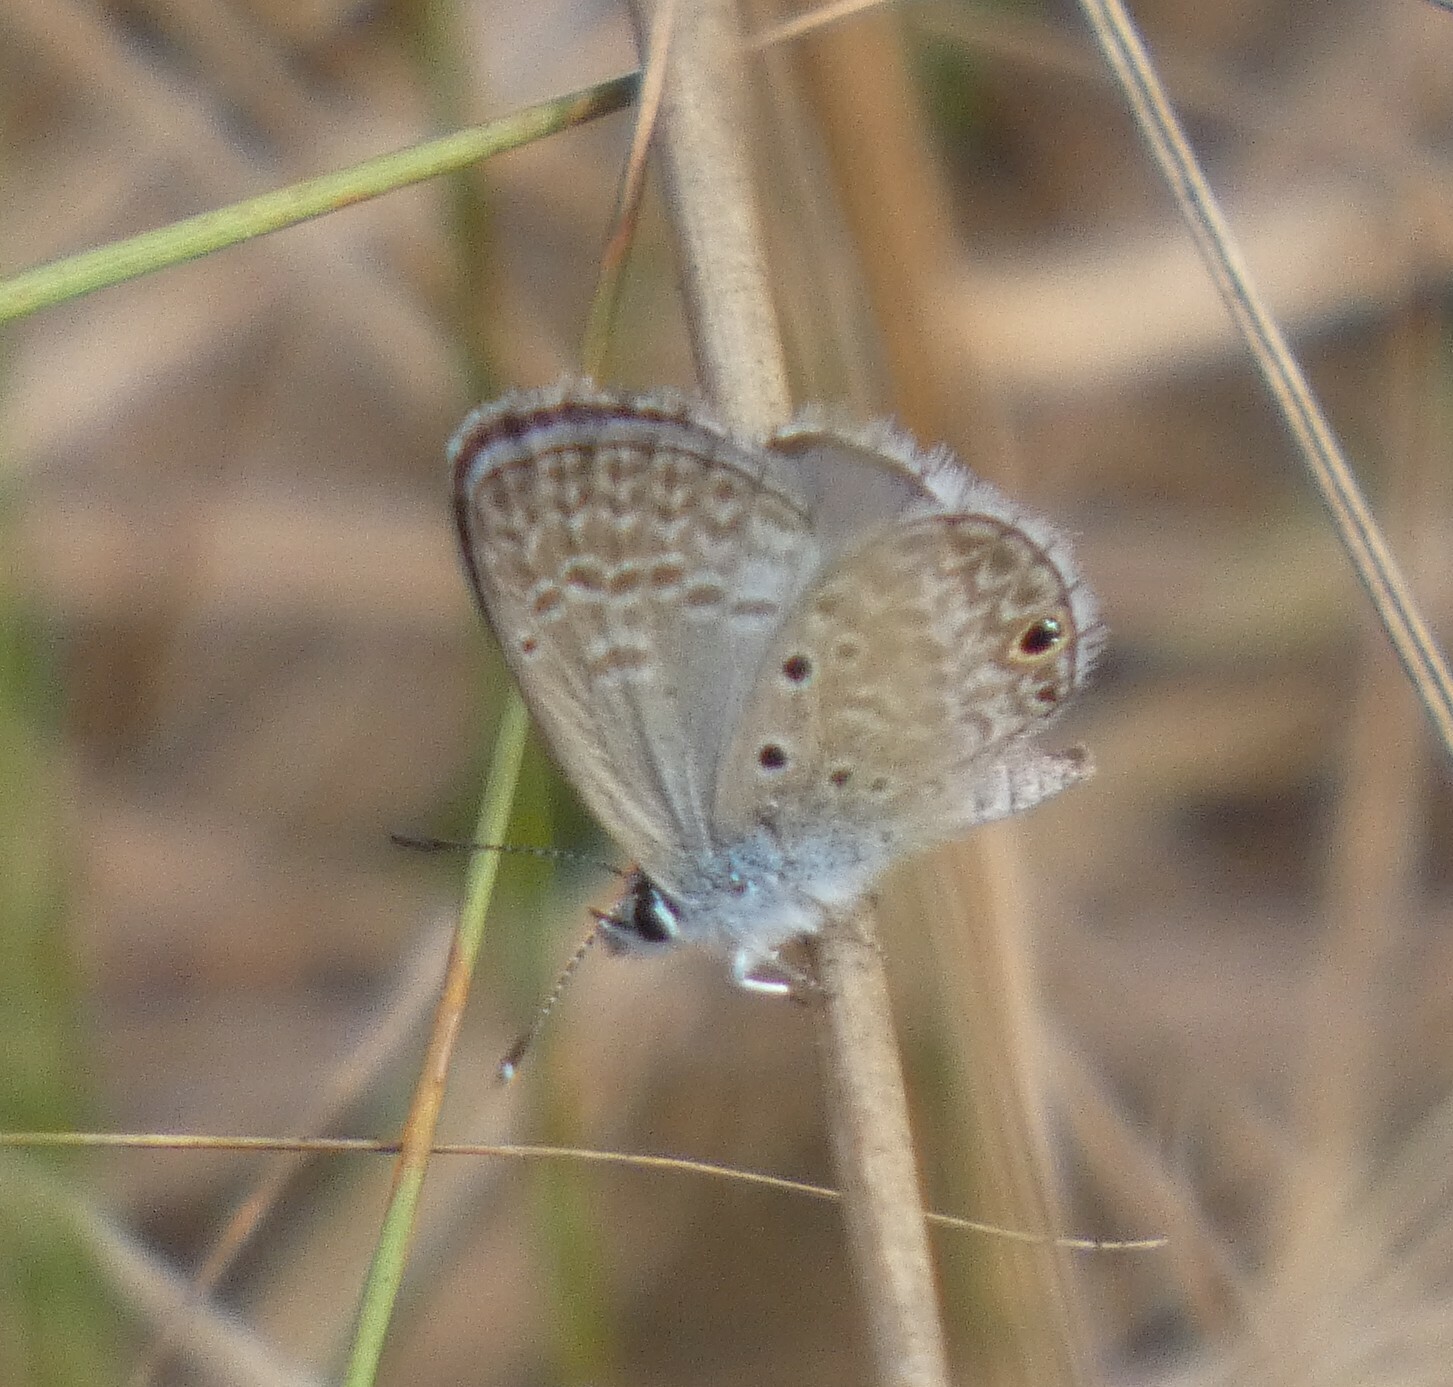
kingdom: Animalia
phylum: Arthropoda
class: Insecta
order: Lepidoptera
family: Lycaenidae
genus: Hemiargus
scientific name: Hemiargus hanno
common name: Common blue
